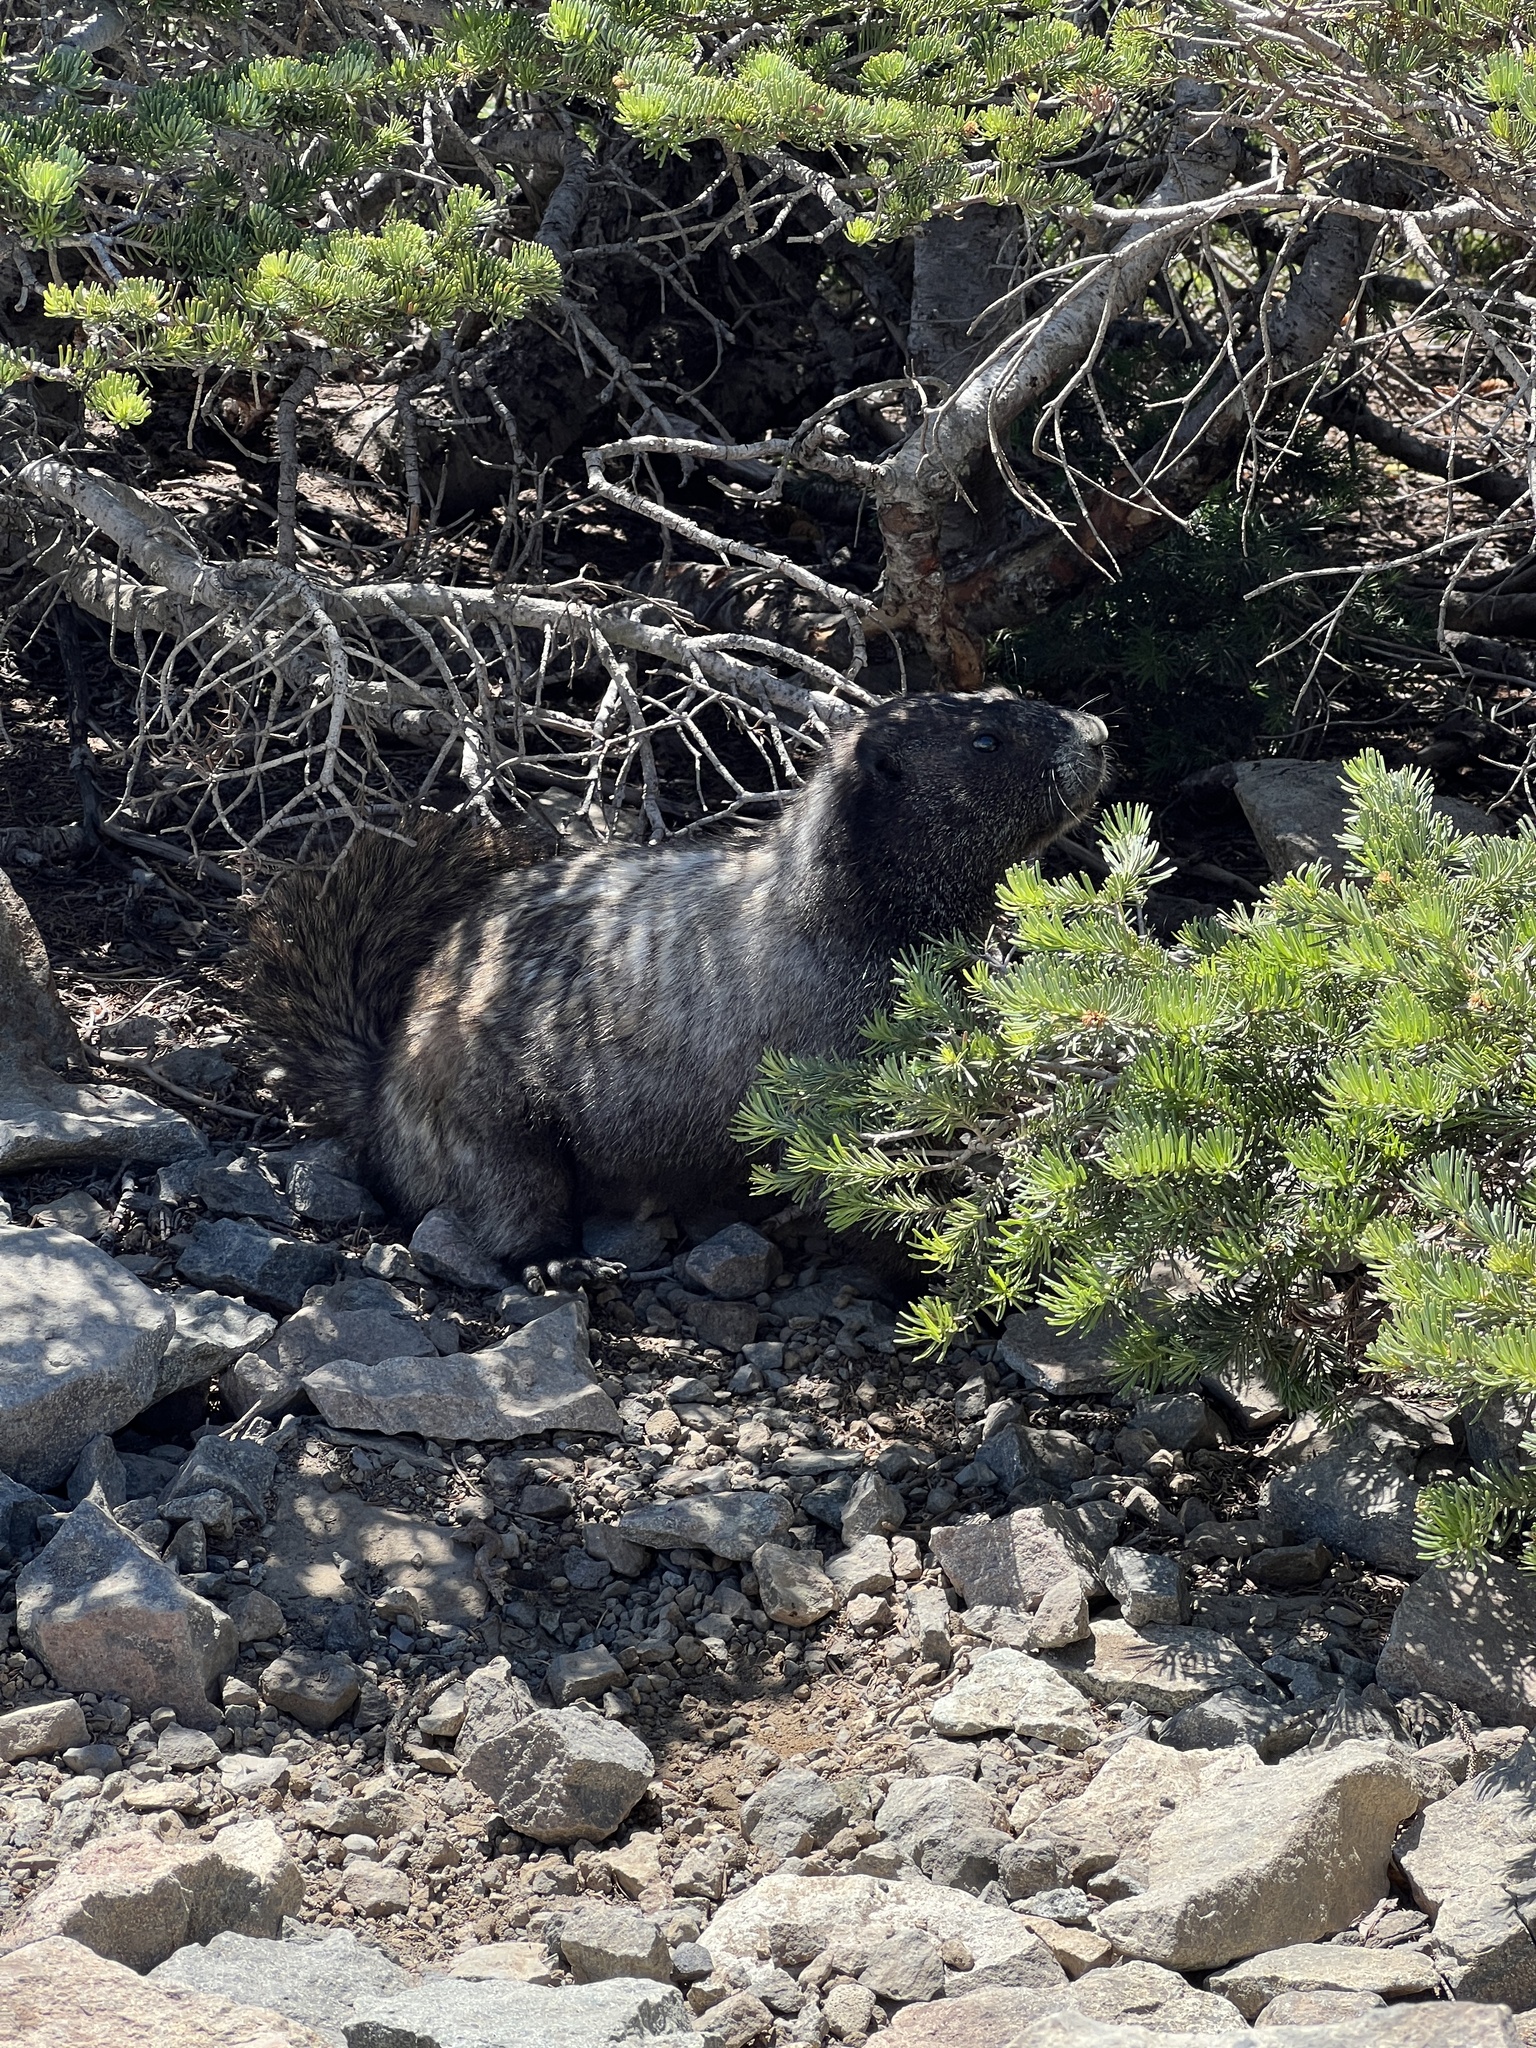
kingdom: Animalia
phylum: Chordata
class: Mammalia
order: Rodentia
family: Sciuridae
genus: Marmota
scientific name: Marmota caligata
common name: Hoary marmot
